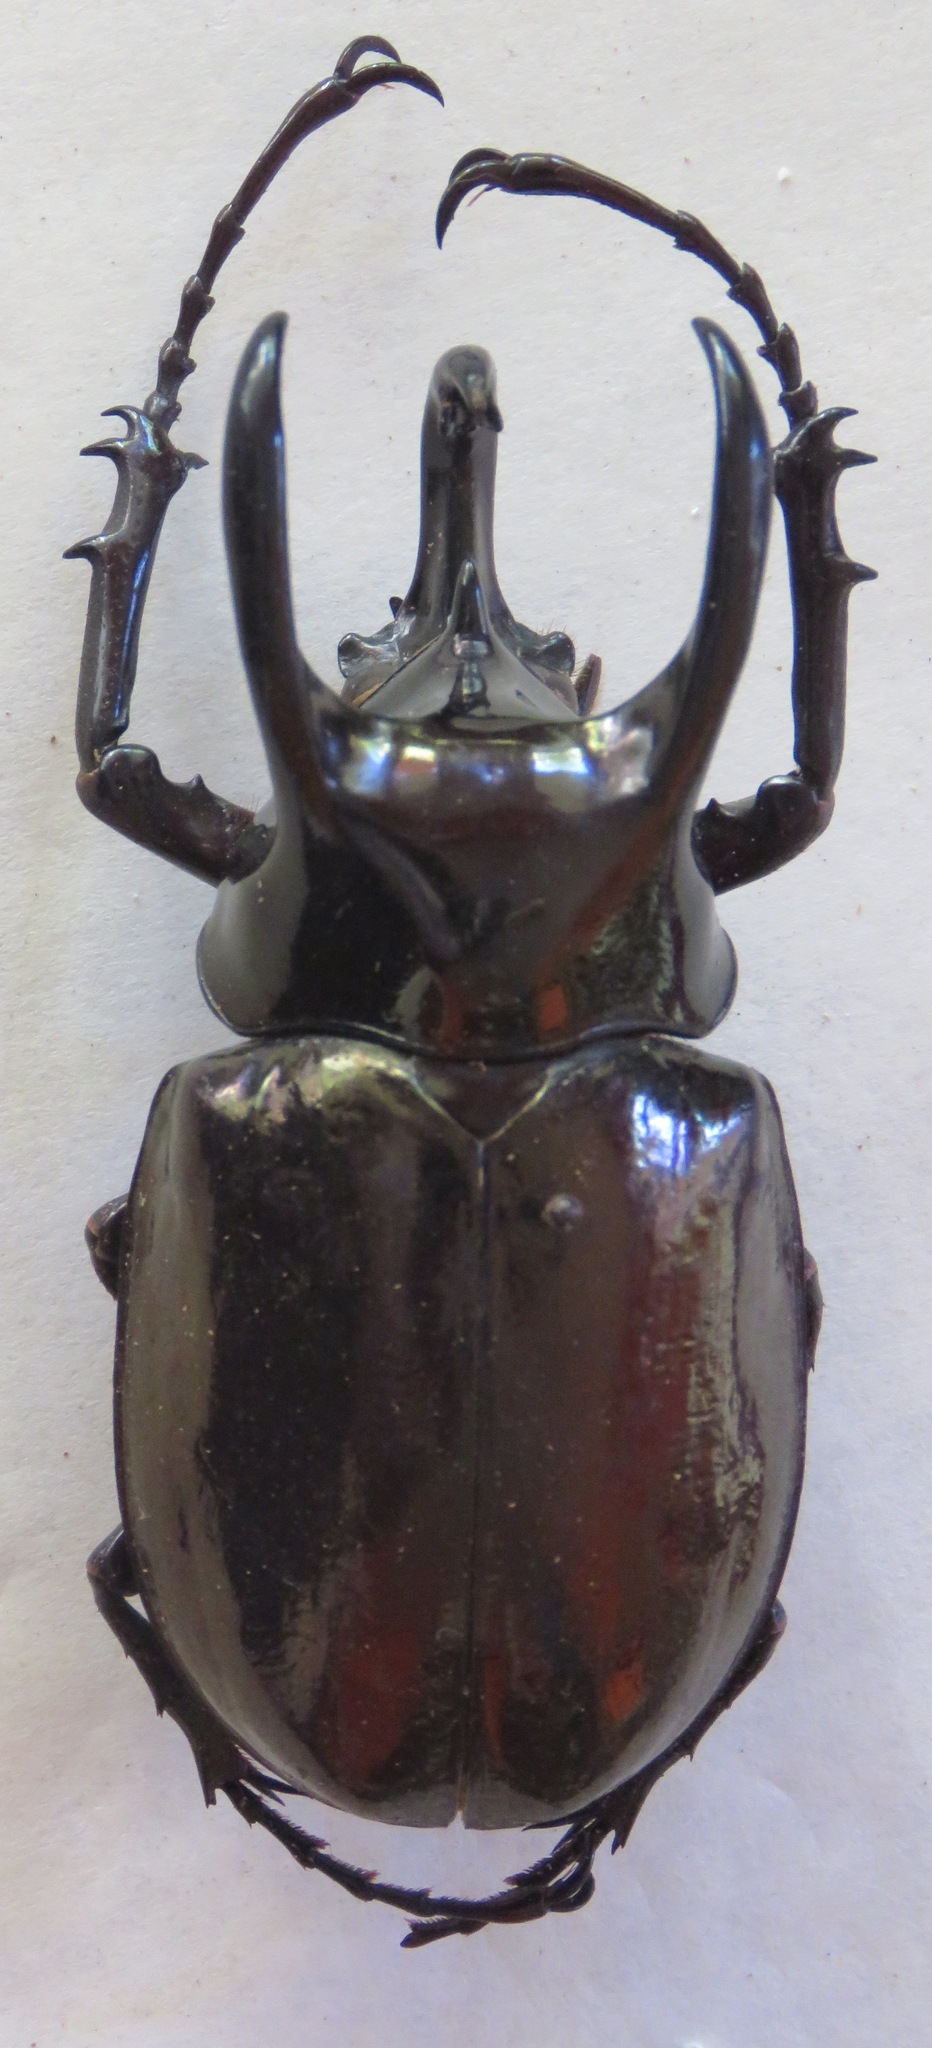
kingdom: Animalia
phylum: Arthropoda
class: Insecta
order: Coleoptera
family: Scarabaeidae
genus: Chalcosoma
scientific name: Chalcosoma atlas
